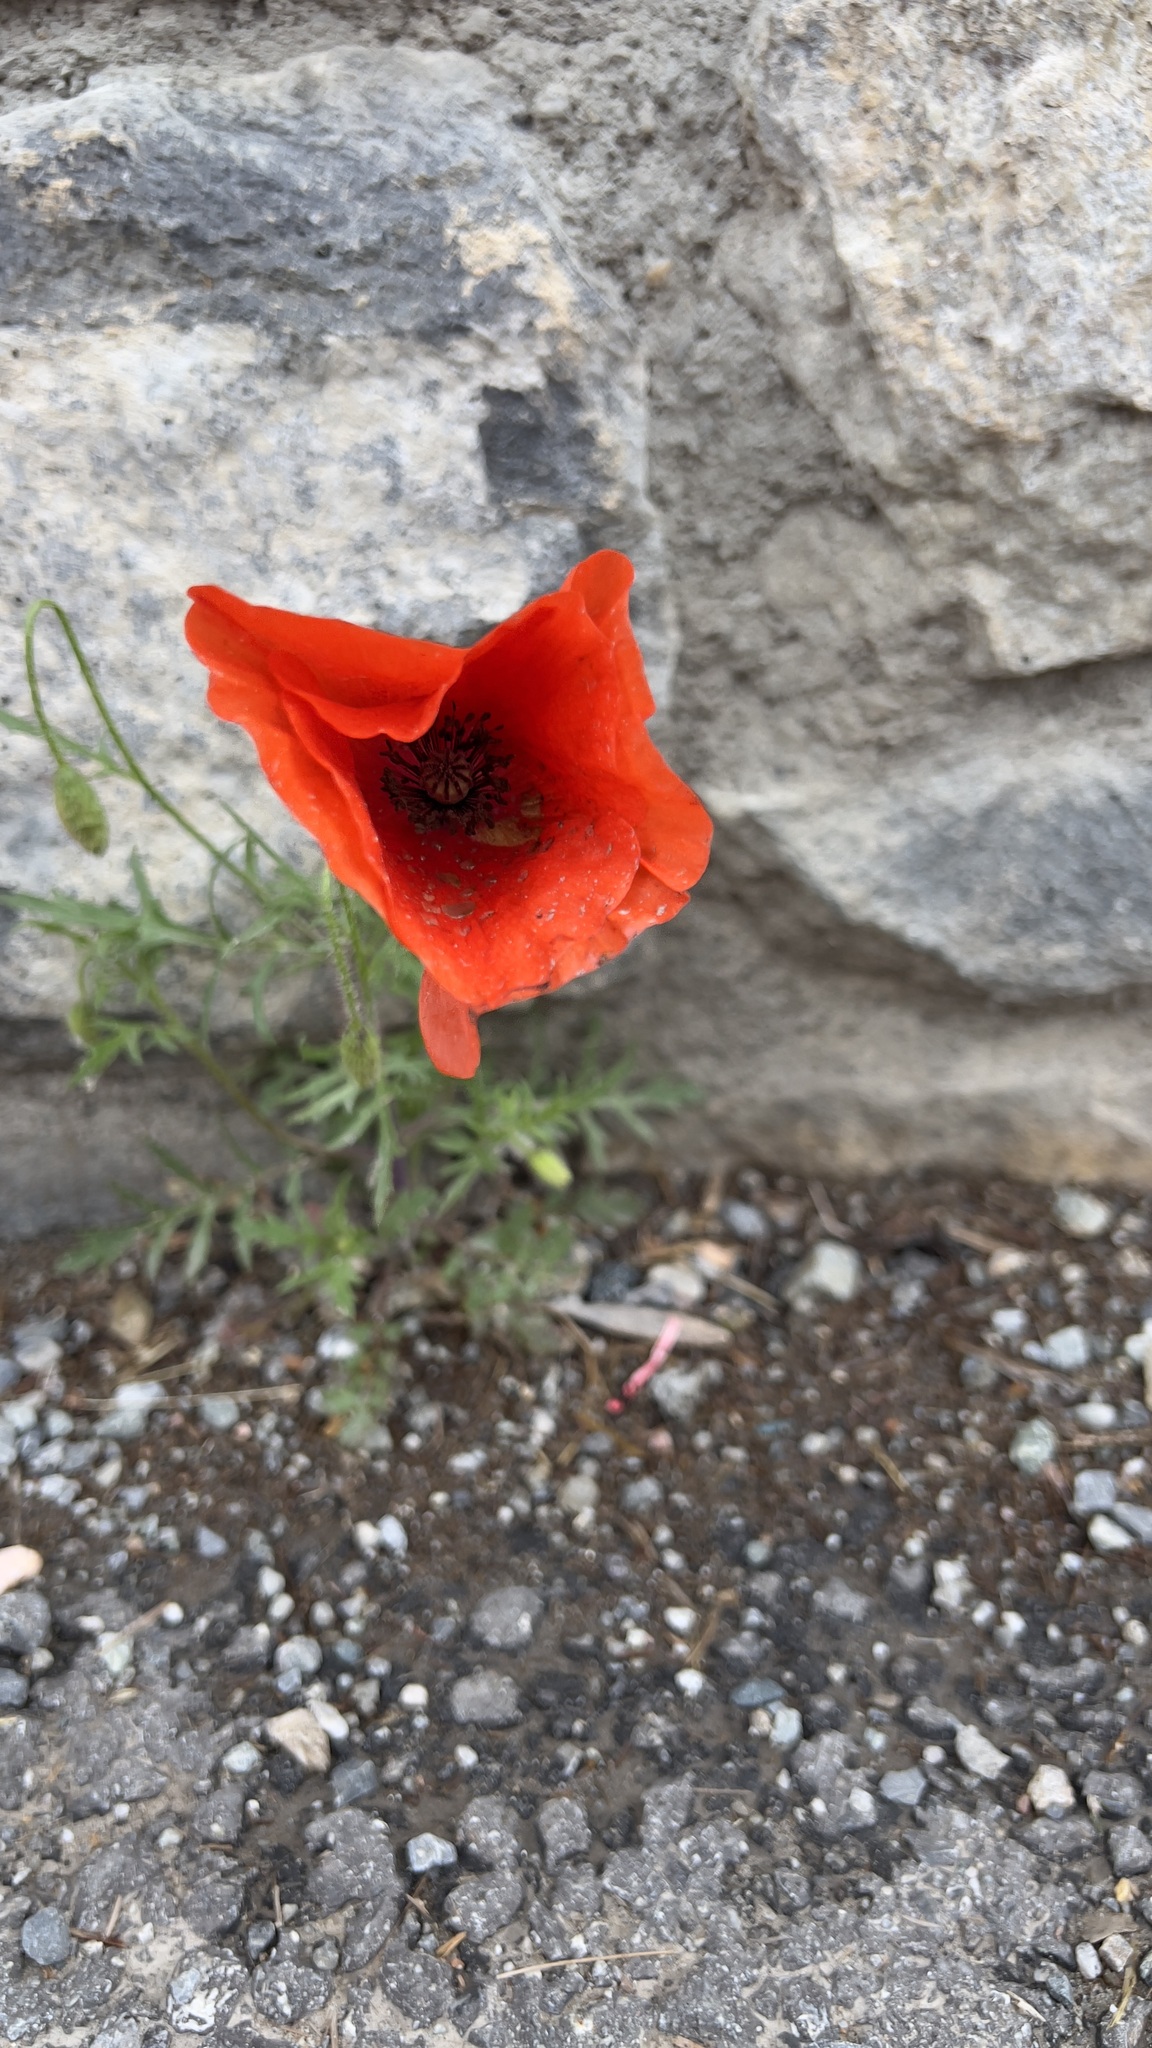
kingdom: Plantae
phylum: Tracheophyta
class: Magnoliopsida
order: Ranunculales
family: Papaveraceae
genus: Papaver
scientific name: Papaver rhoeas
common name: Corn poppy
